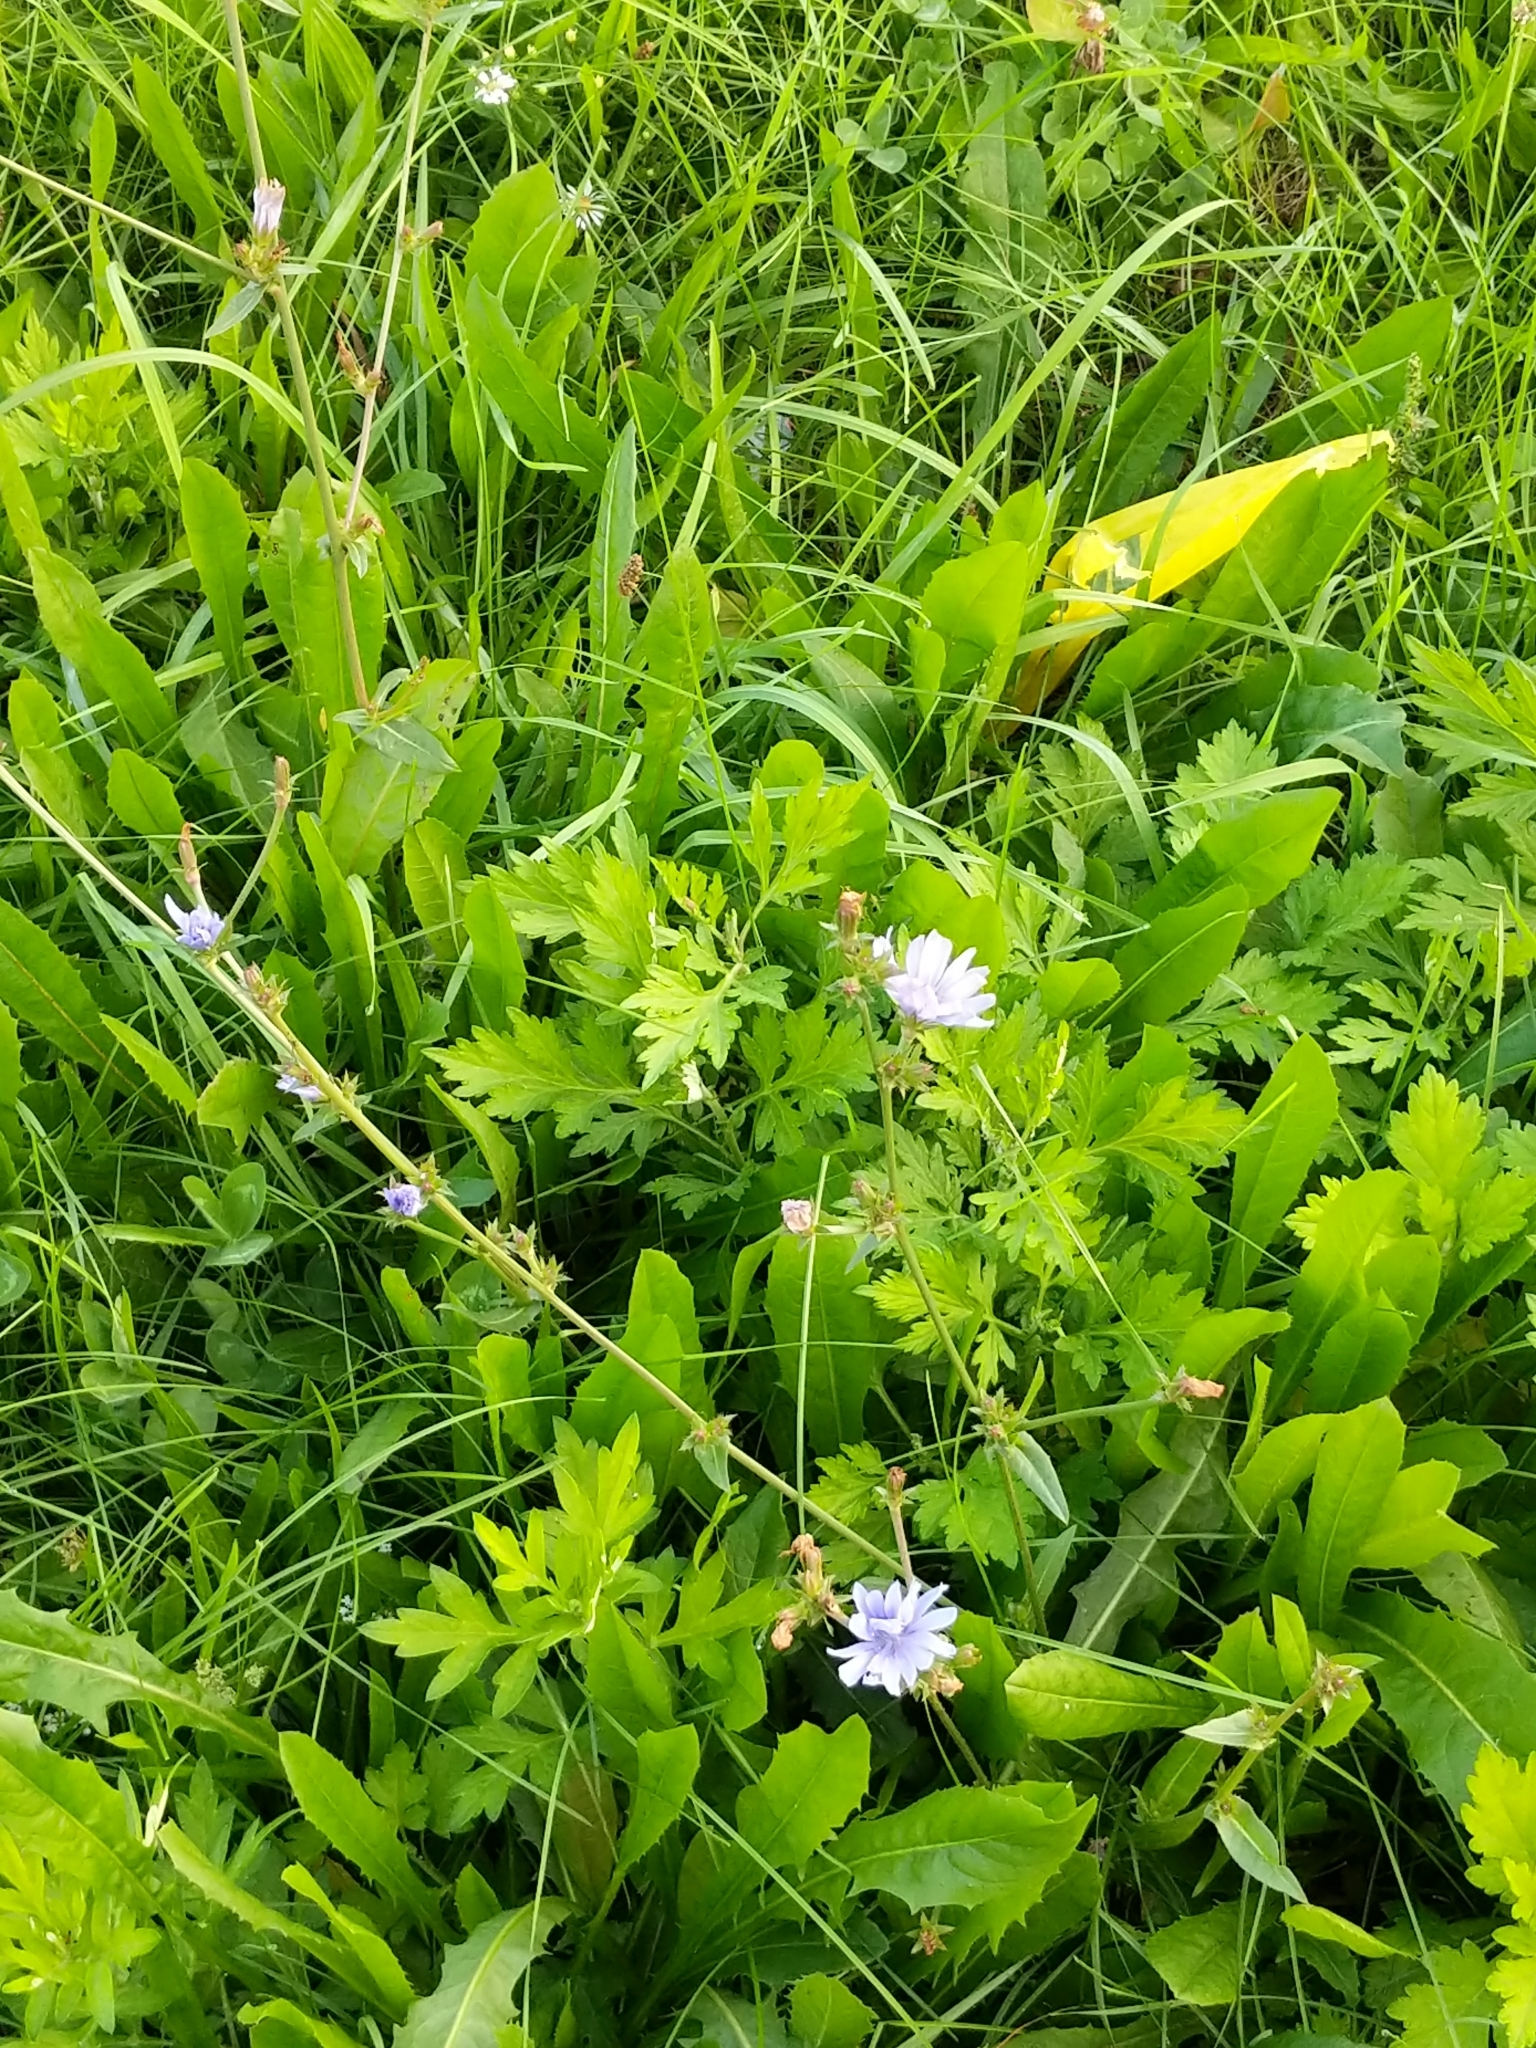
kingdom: Plantae
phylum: Tracheophyta
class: Magnoliopsida
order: Asterales
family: Asteraceae
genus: Cichorium
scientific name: Cichorium intybus
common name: Chicory
